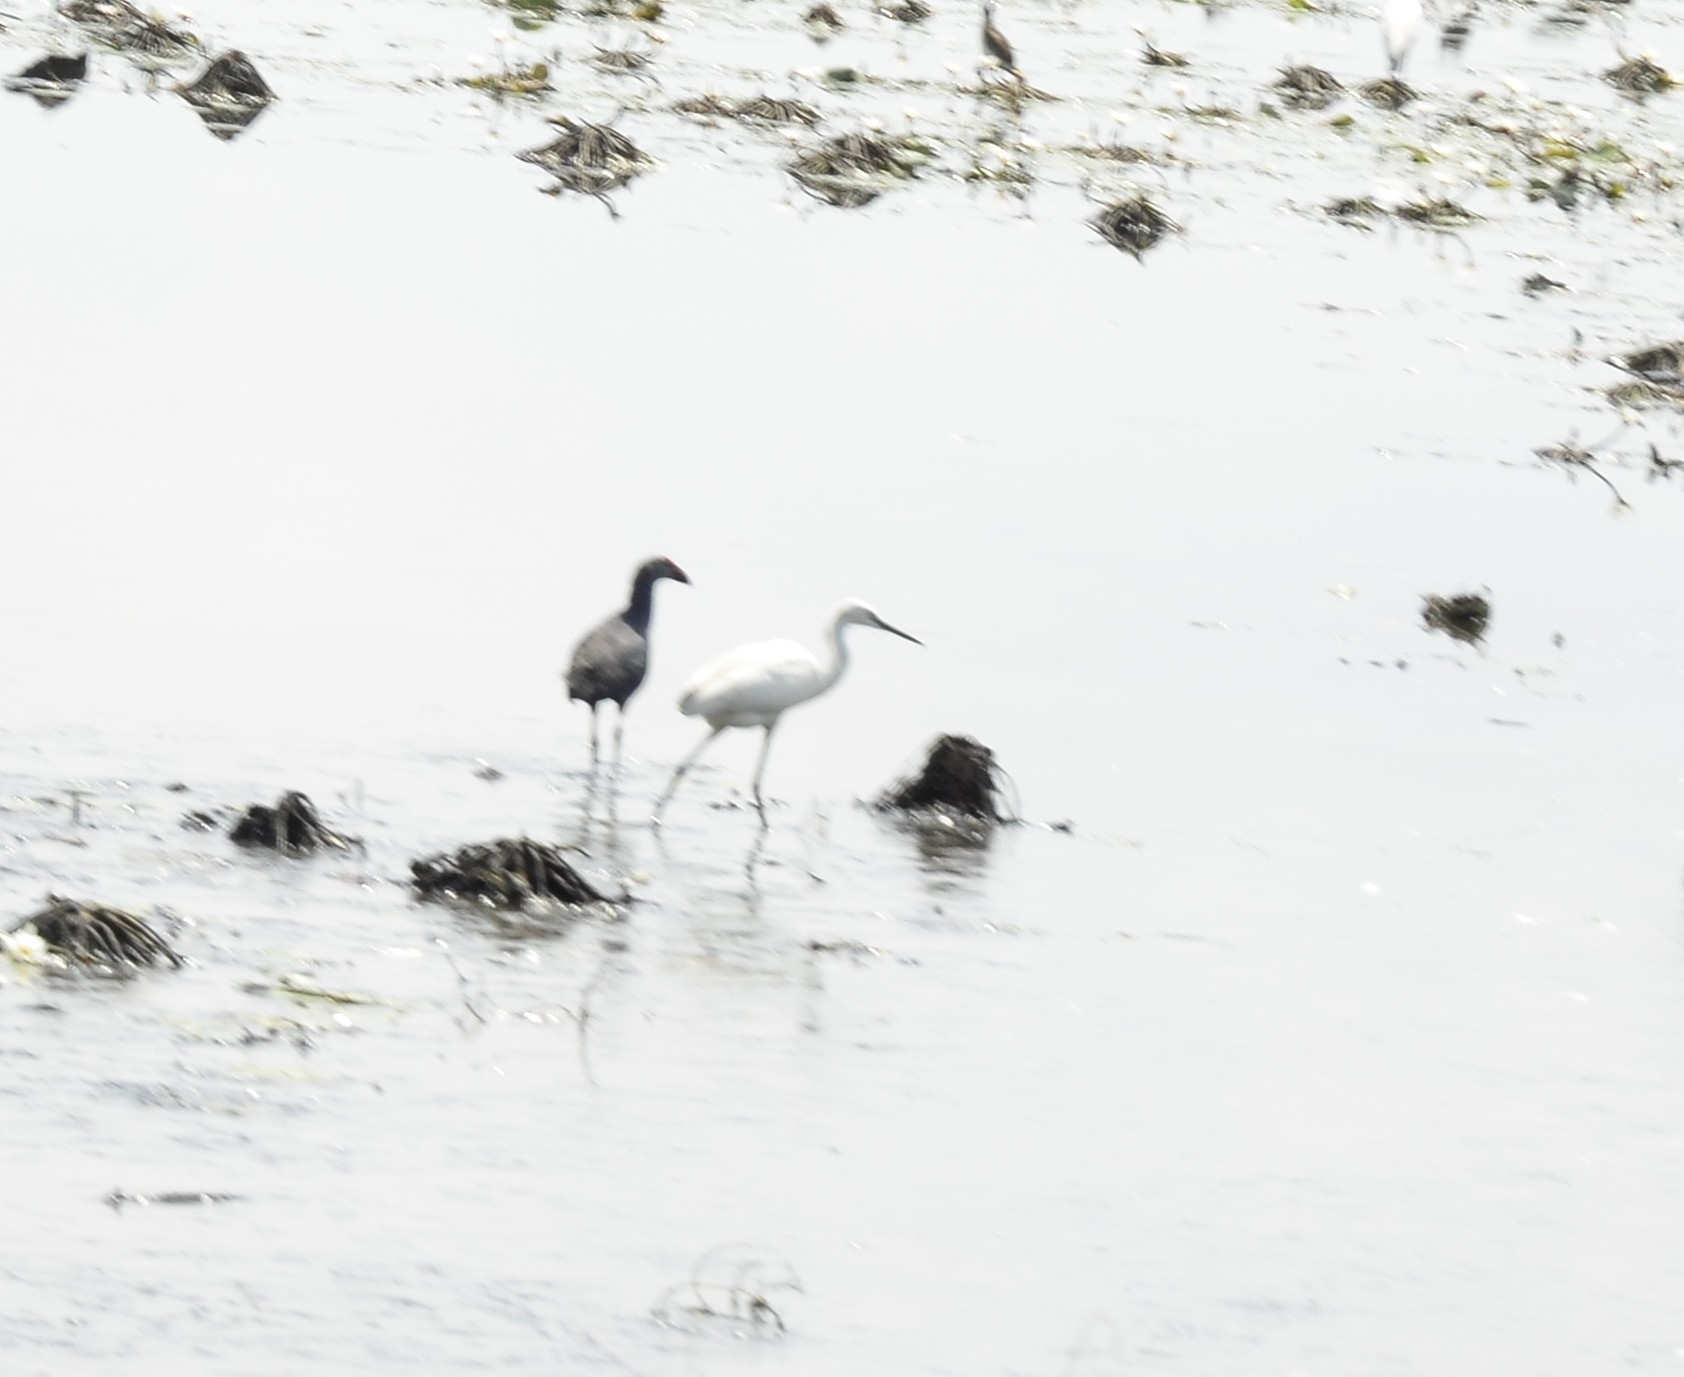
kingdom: Animalia
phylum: Chordata
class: Aves
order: Pelecaniformes
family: Ardeidae
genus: Egretta
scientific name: Egretta garzetta
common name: Little egret
